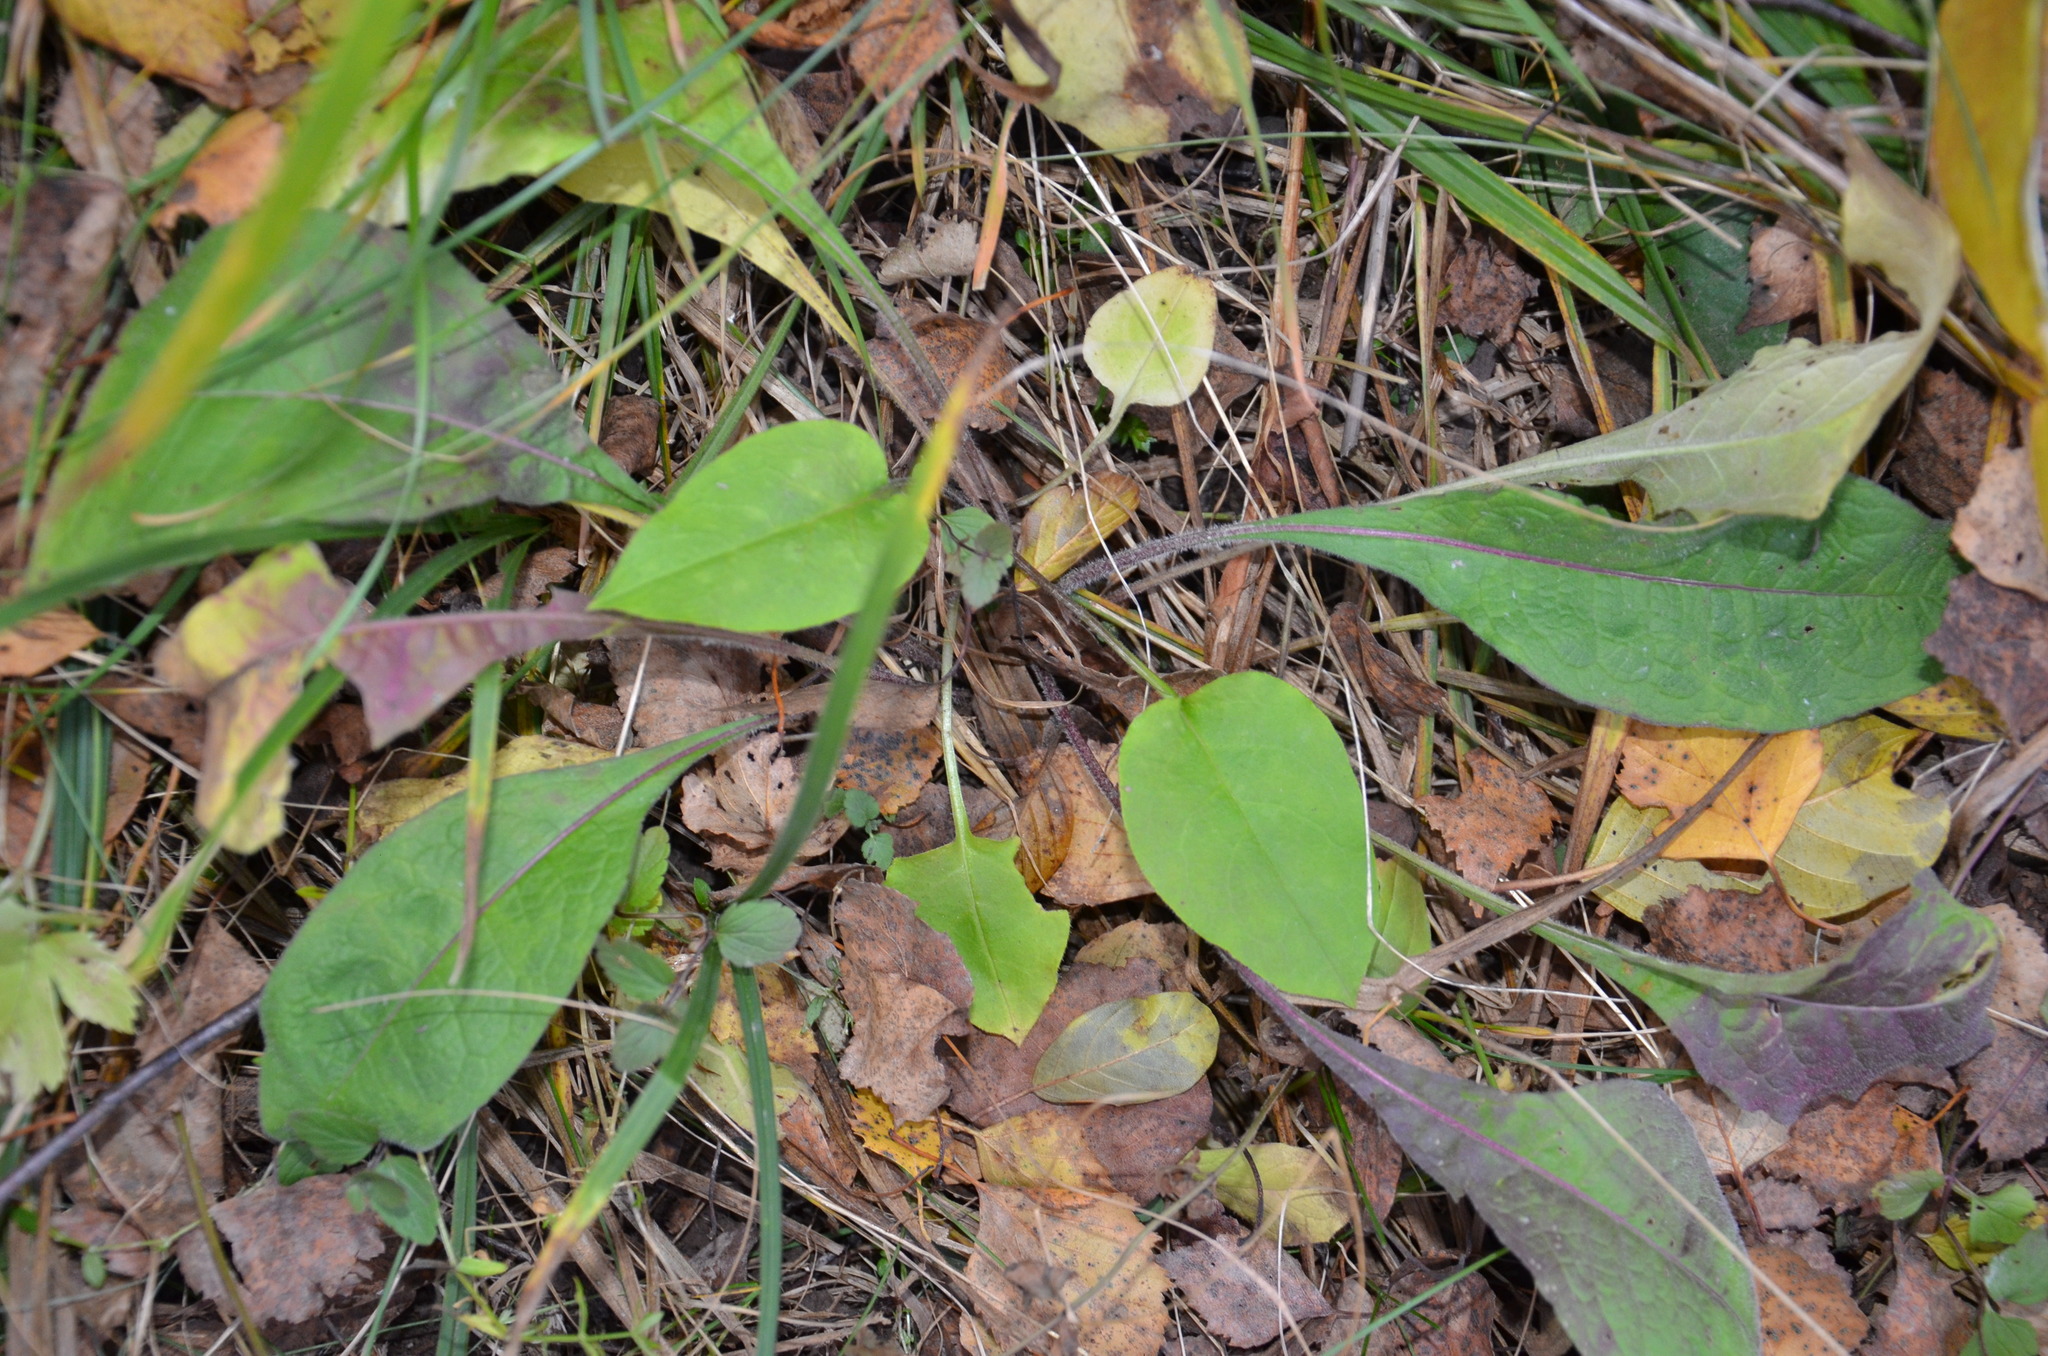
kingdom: Plantae
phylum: Tracheophyta
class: Magnoliopsida
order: Boraginales
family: Boraginaceae
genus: Pulmonaria
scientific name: Pulmonaria obscura
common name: Suffolk lungwort
